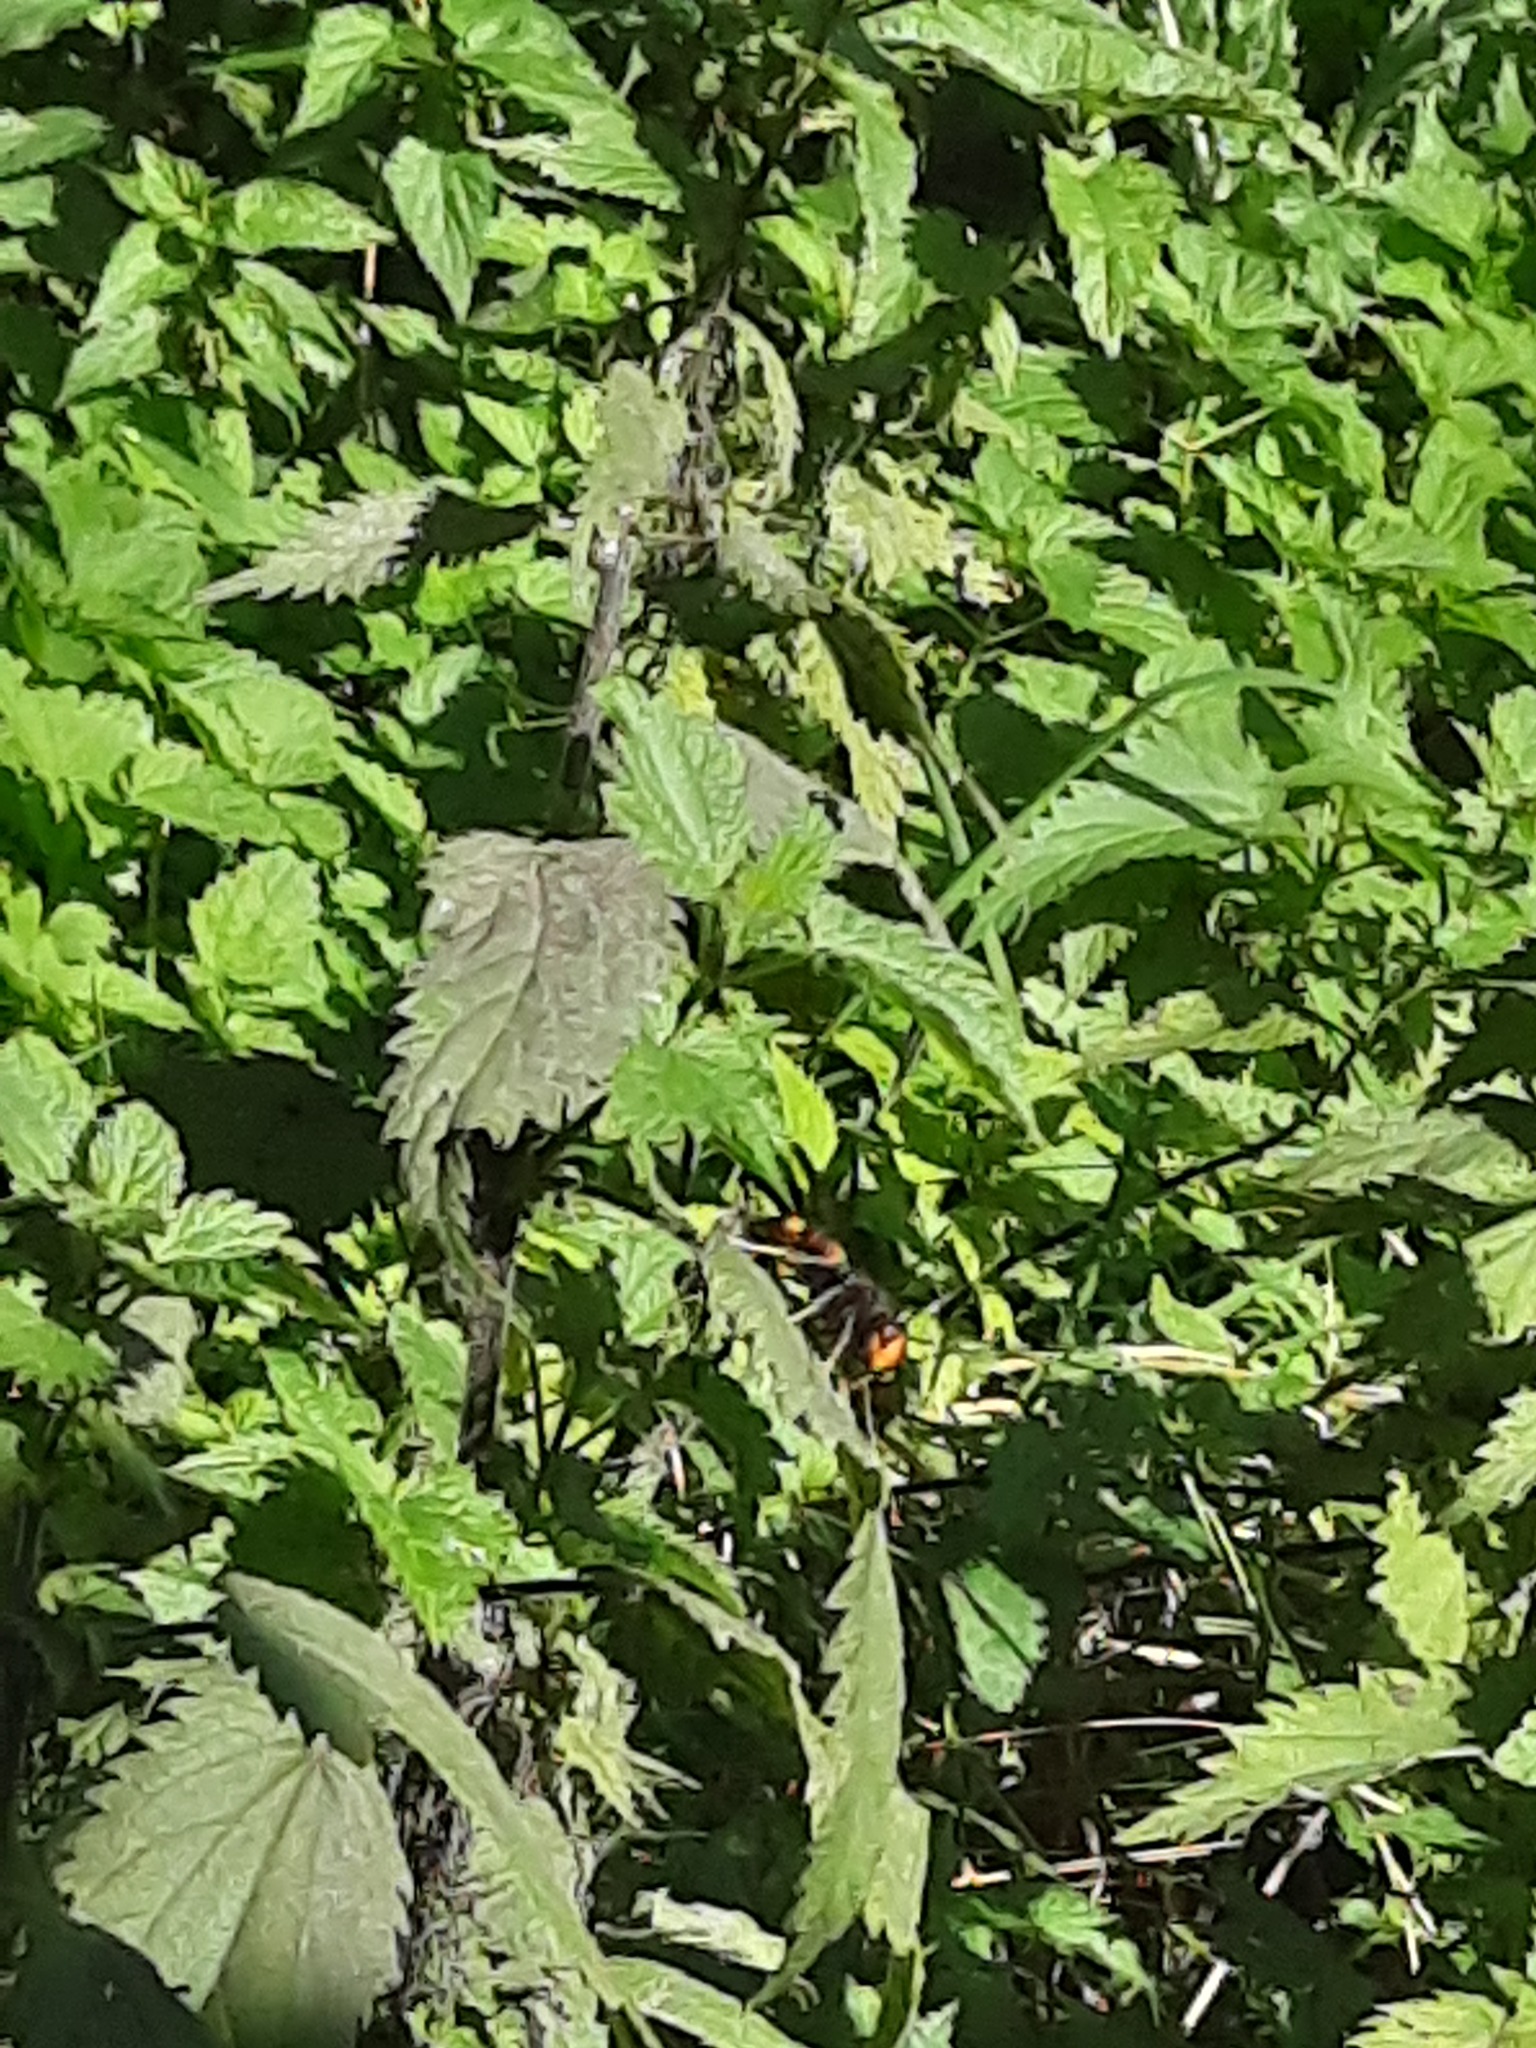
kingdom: Animalia
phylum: Arthropoda
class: Insecta
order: Hymenoptera
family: Vespidae
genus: Vespa
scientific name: Vespa velutina
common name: Asian hornet
